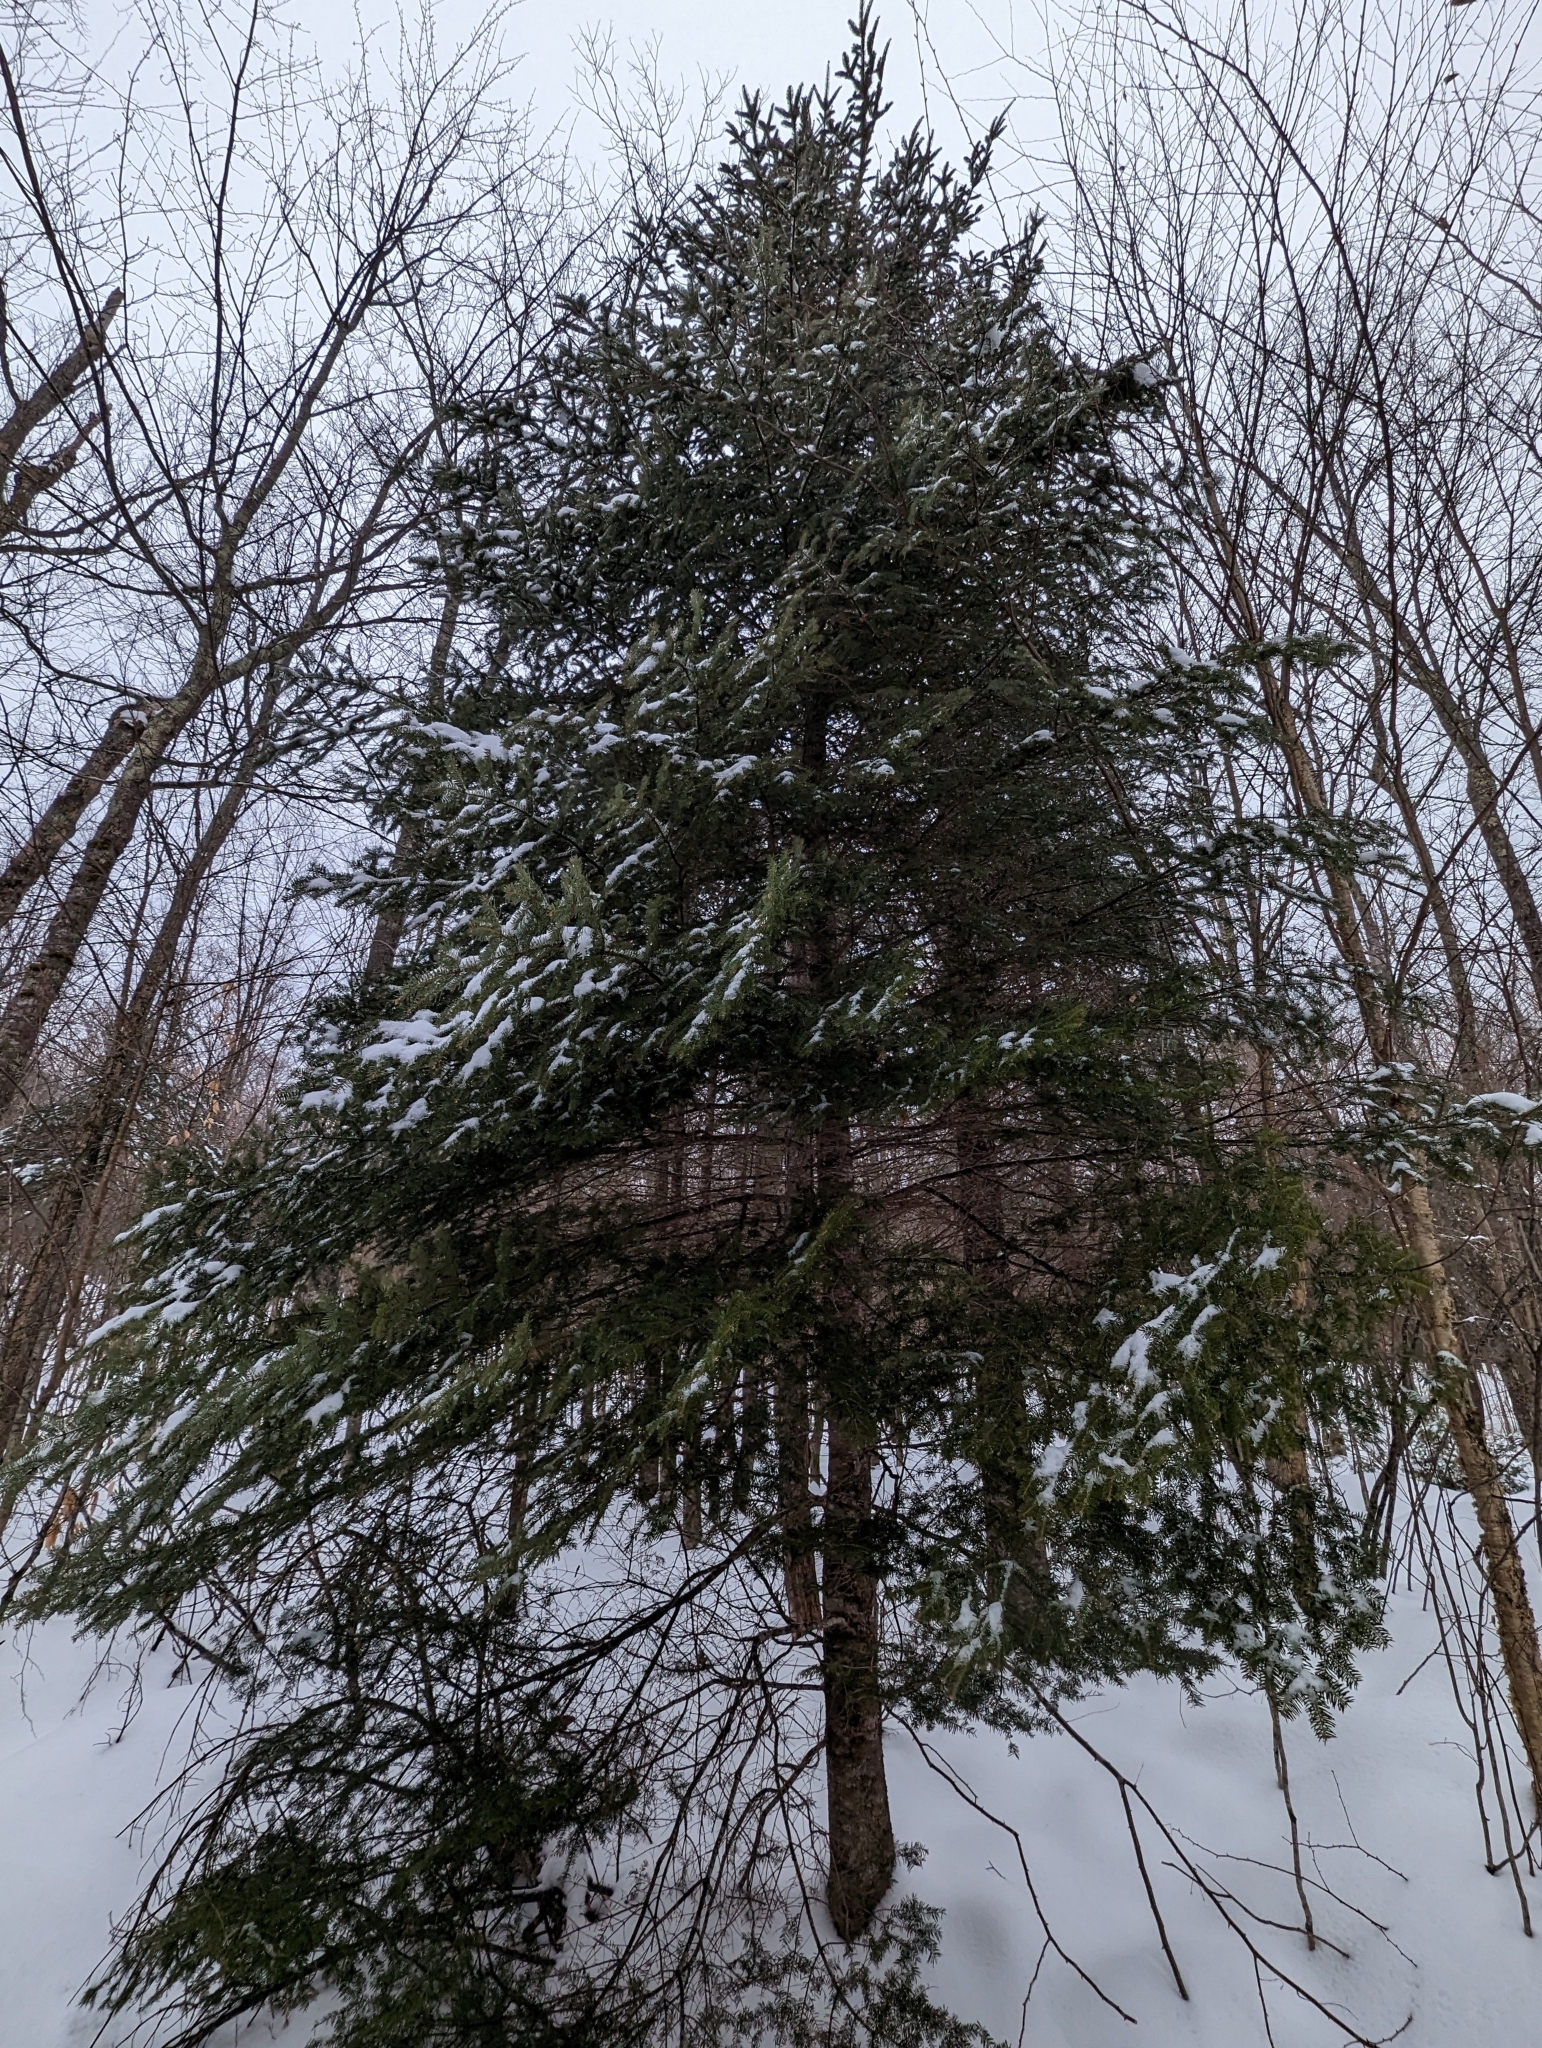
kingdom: Plantae
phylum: Tracheophyta
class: Pinopsida
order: Pinales
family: Pinaceae
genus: Abies
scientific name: Abies balsamea
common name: Balsam fir
